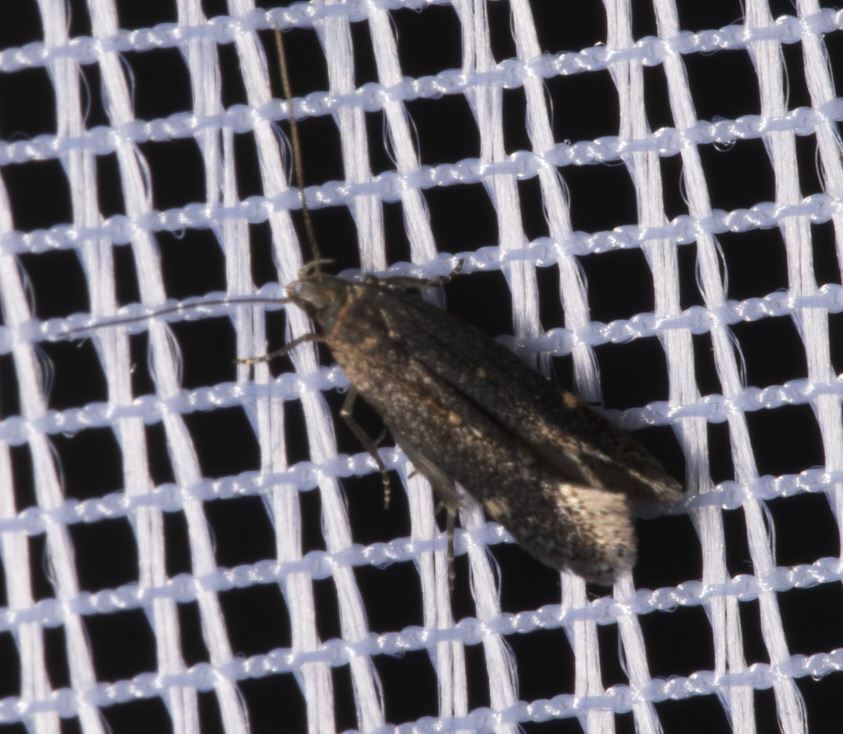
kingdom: Animalia
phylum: Arthropoda
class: Insecta
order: Lepidoptera
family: Gelechiidae
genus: Aproaerema
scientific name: Aproaerema anthyllidella
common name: Vetch sober
